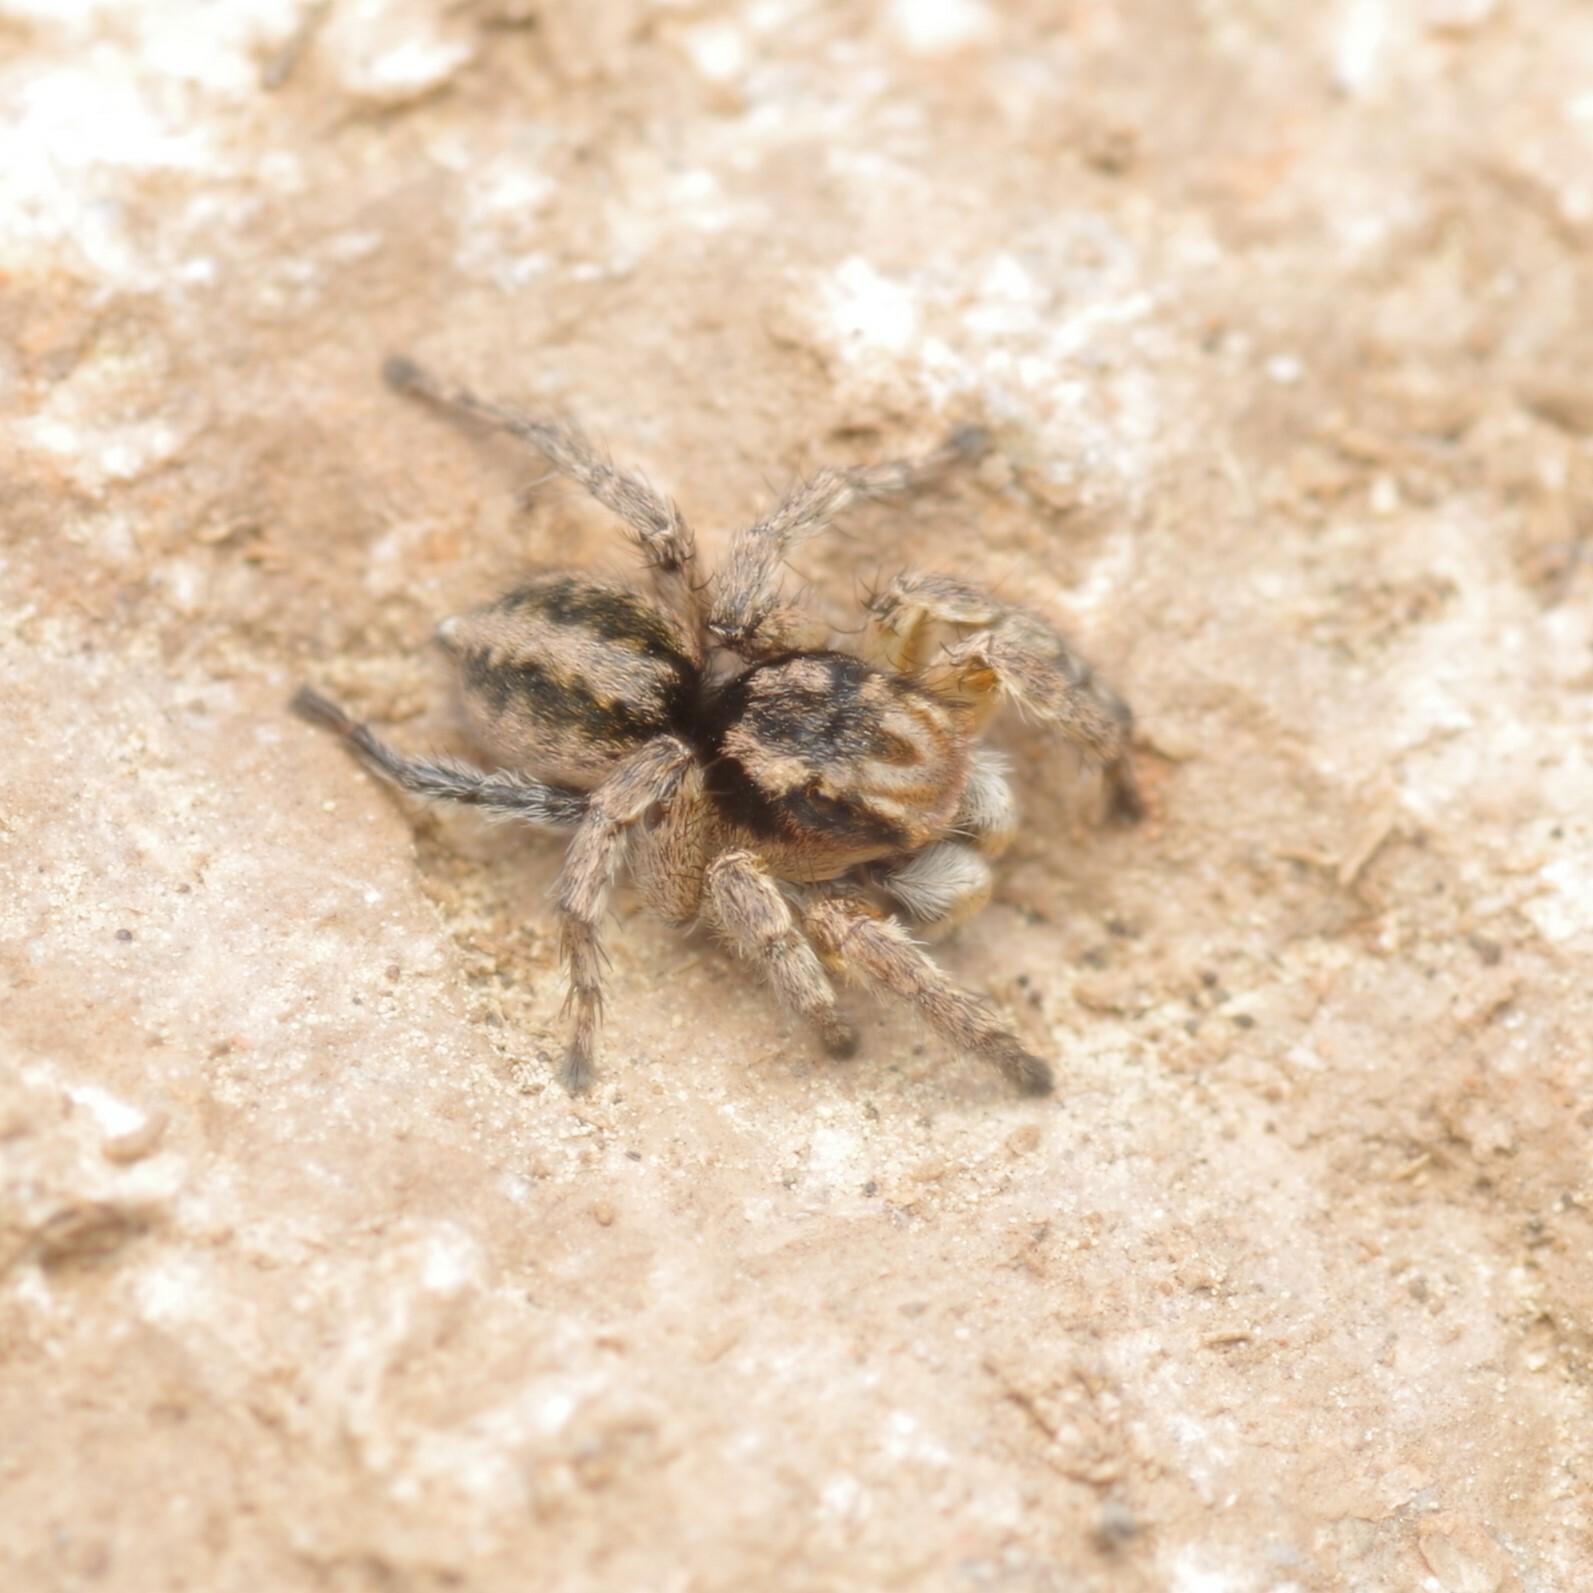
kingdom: Animalia
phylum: Arthropoda
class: Arachnida
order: Araneae
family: Salticidae
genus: Aelurillus
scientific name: Aelurillus v-insignitus
